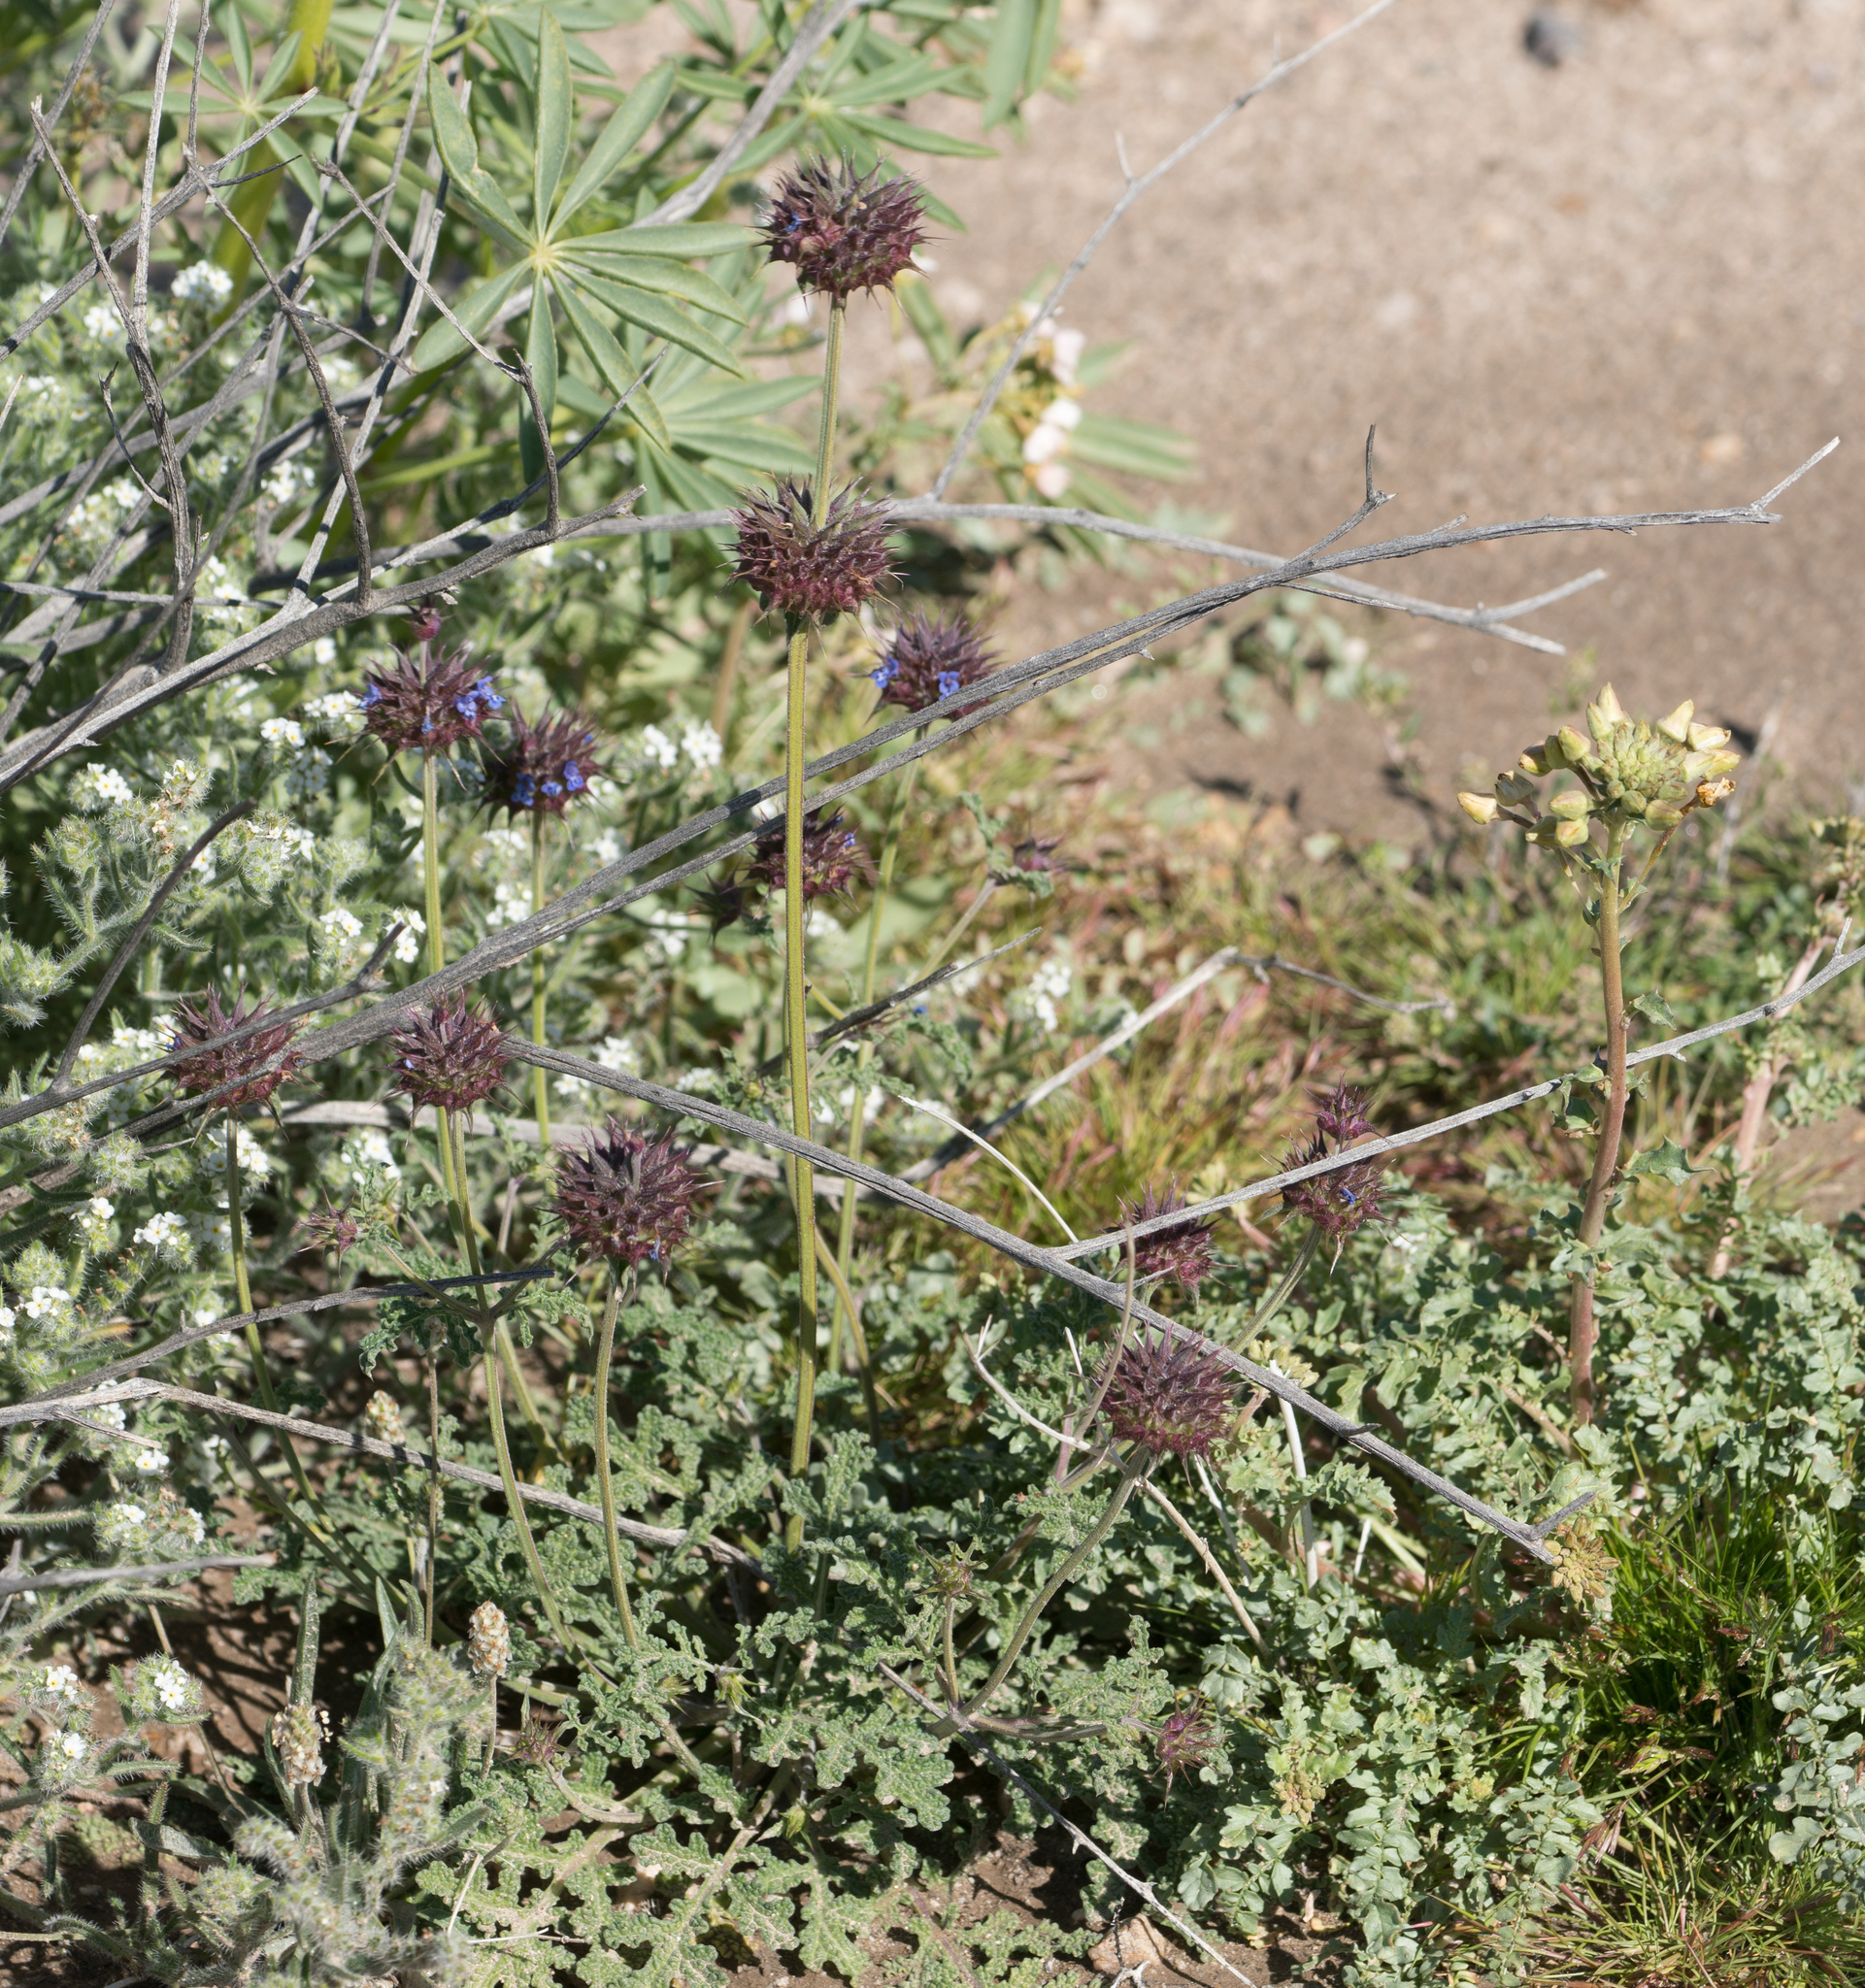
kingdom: Plantae
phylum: Tracheophyta
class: Magnoliopsida
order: Lamiales
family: Lamiaceae
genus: Salvia
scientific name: Salvia columbariae
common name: Chia
